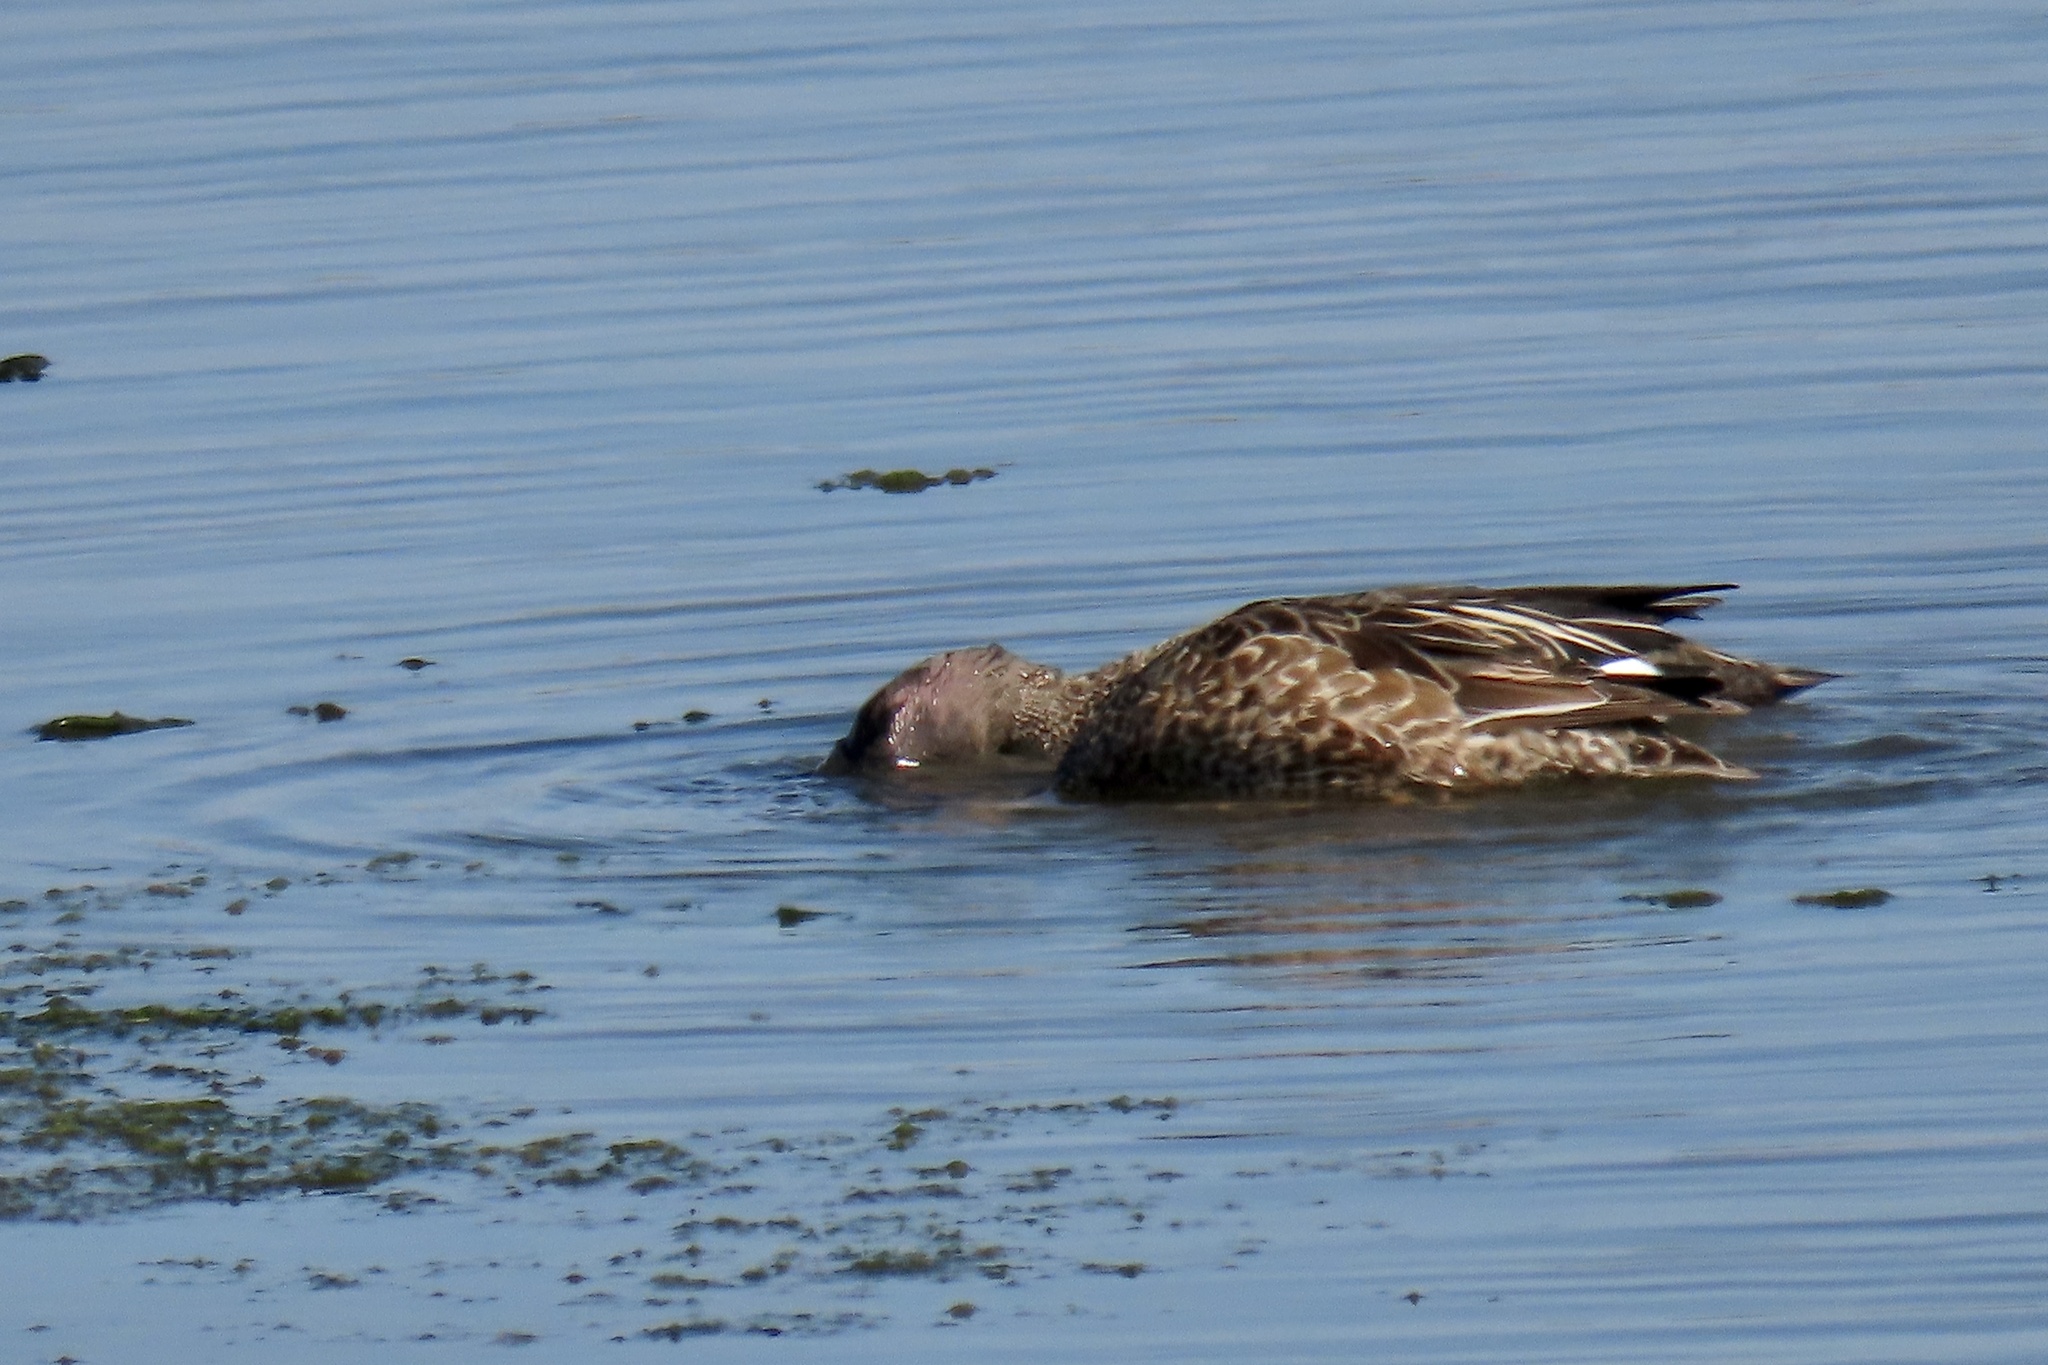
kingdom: Animalia
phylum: Chordata
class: Aves
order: Anseriformes
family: Anatidae
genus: Spatula
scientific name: Spatula discors
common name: Blue-winged teal
